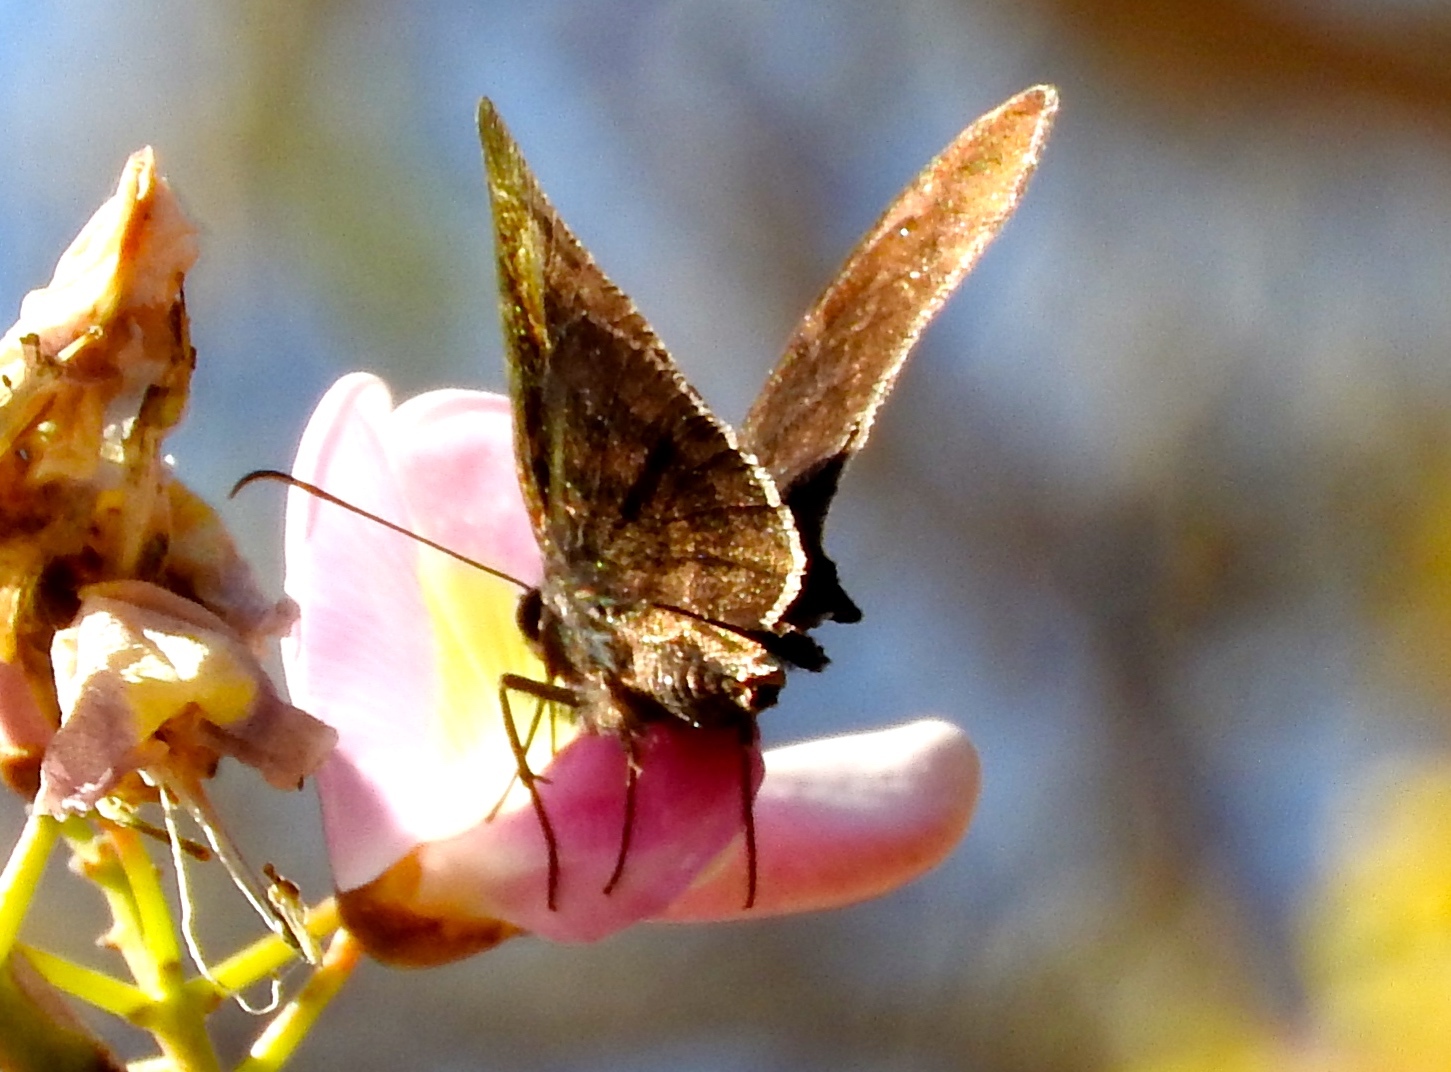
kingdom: Animalia
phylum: Arthropoda
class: Insecta
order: Lepidoptera
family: Hesperiidae
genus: Achalarus
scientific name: Achalarus
